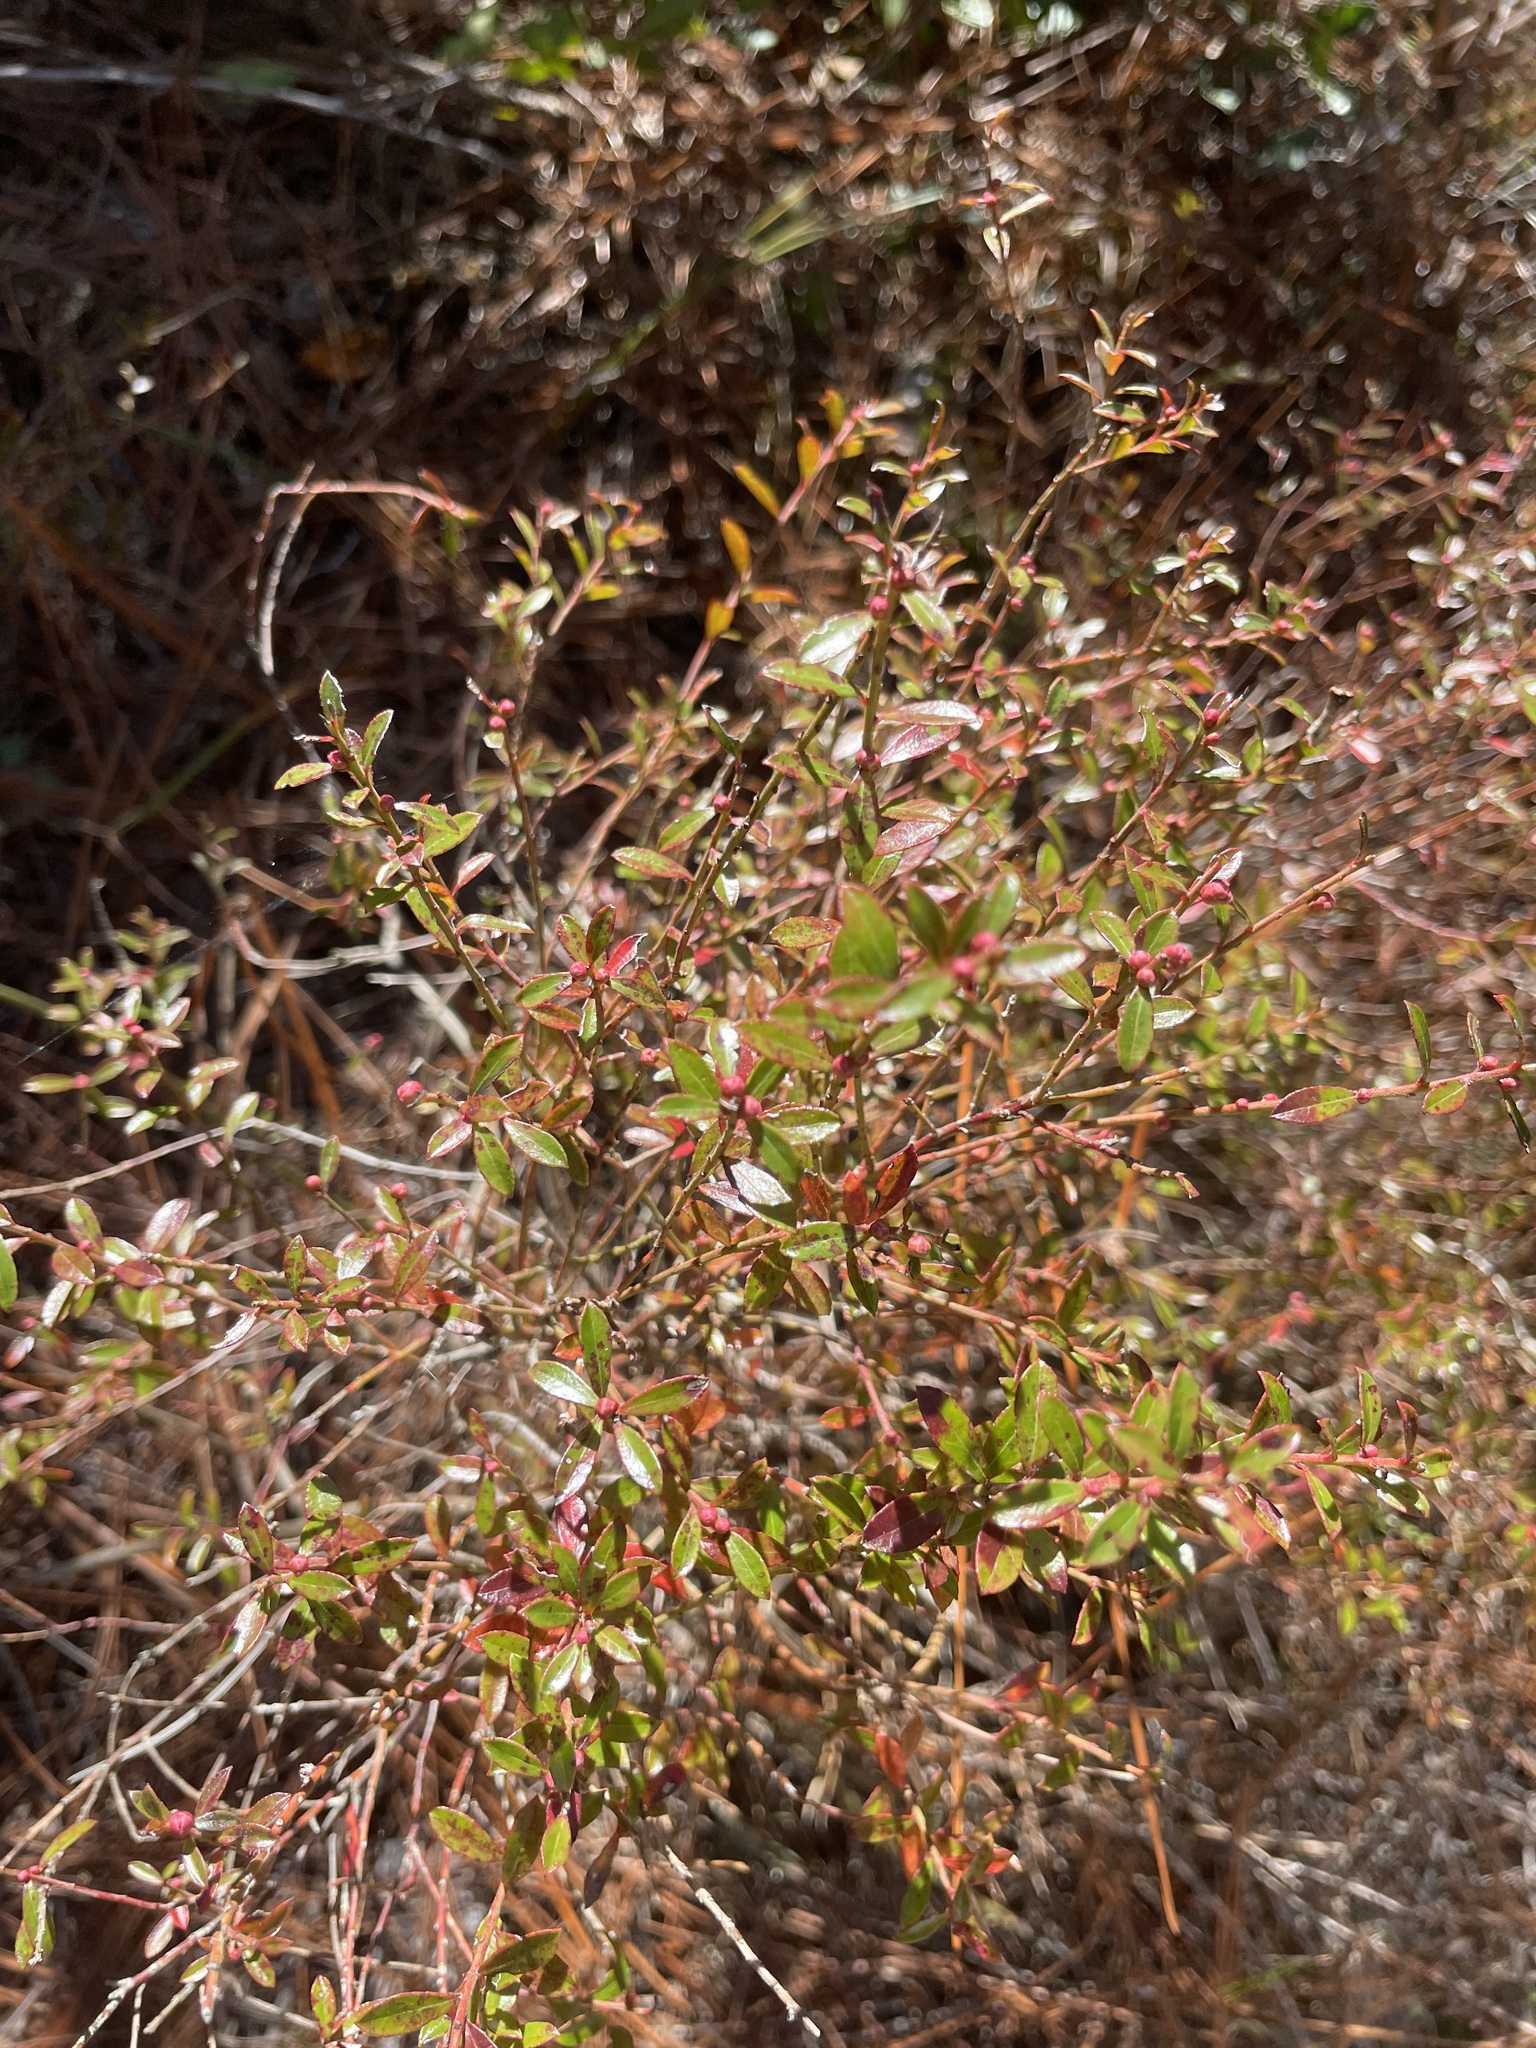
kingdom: Plantae
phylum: Tracheophyta
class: Magnoliopsida
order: Ericales
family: Ericaceae
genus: Vaccinium
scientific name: Vaccinium myrsinites
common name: Evergreen blueberry
